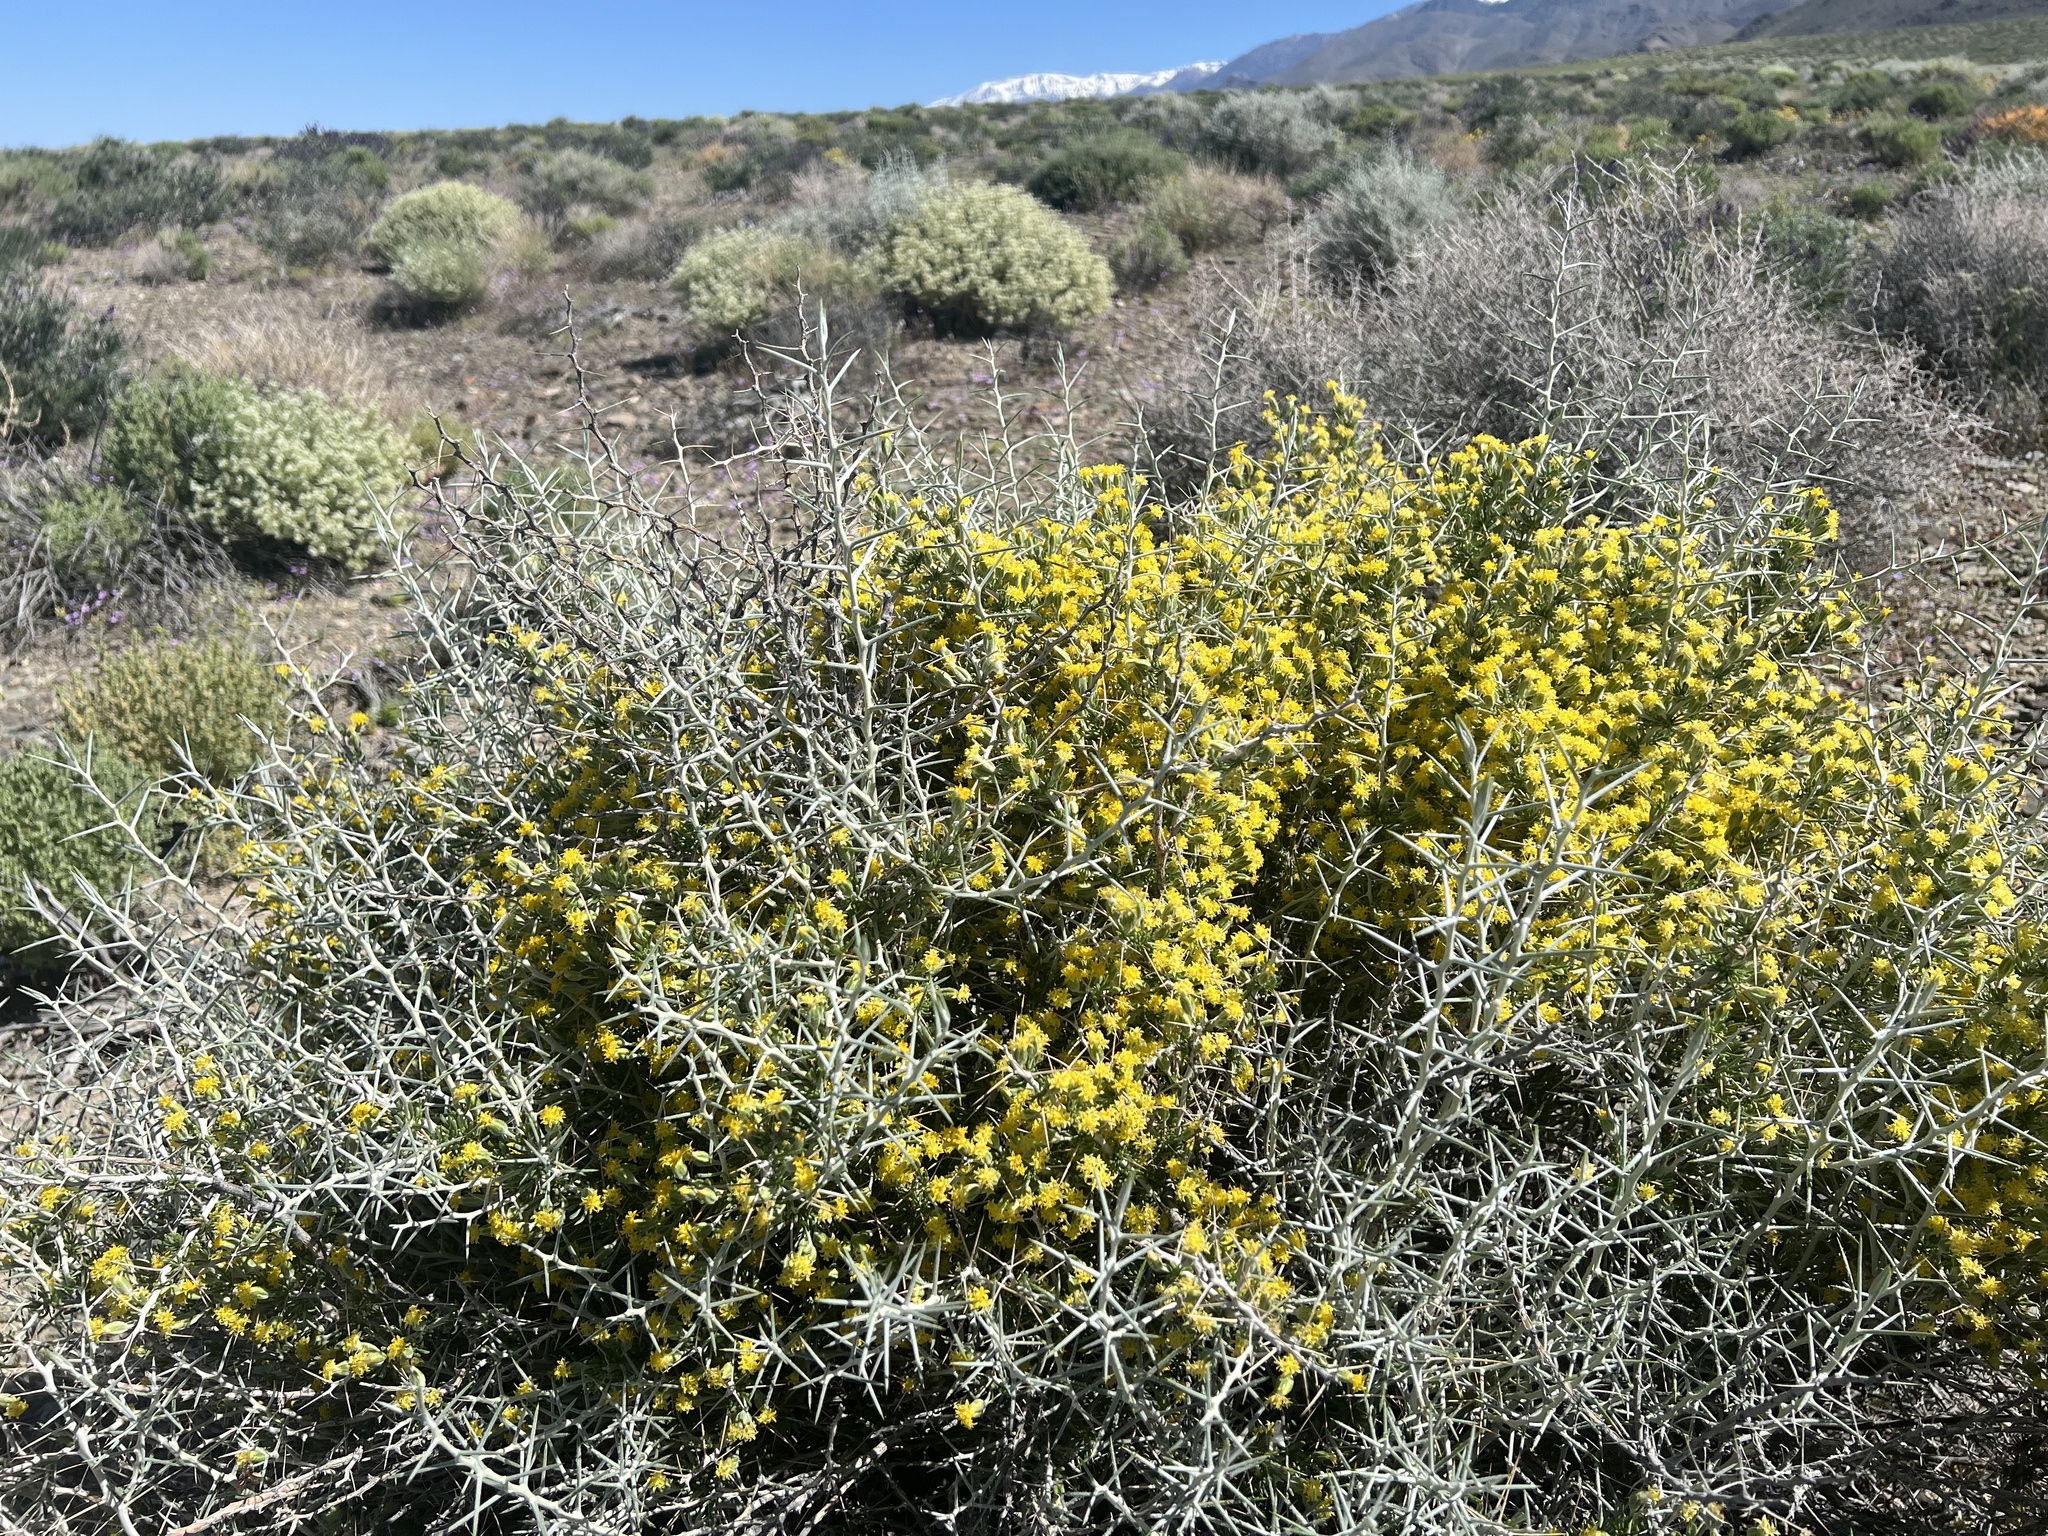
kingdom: Plantae
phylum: Tracheophyta
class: Magnoliopsida
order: Asterales
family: Asteraceae
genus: Tetradymia
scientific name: Tetradymia axillaris
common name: Long-spine horsebrush
